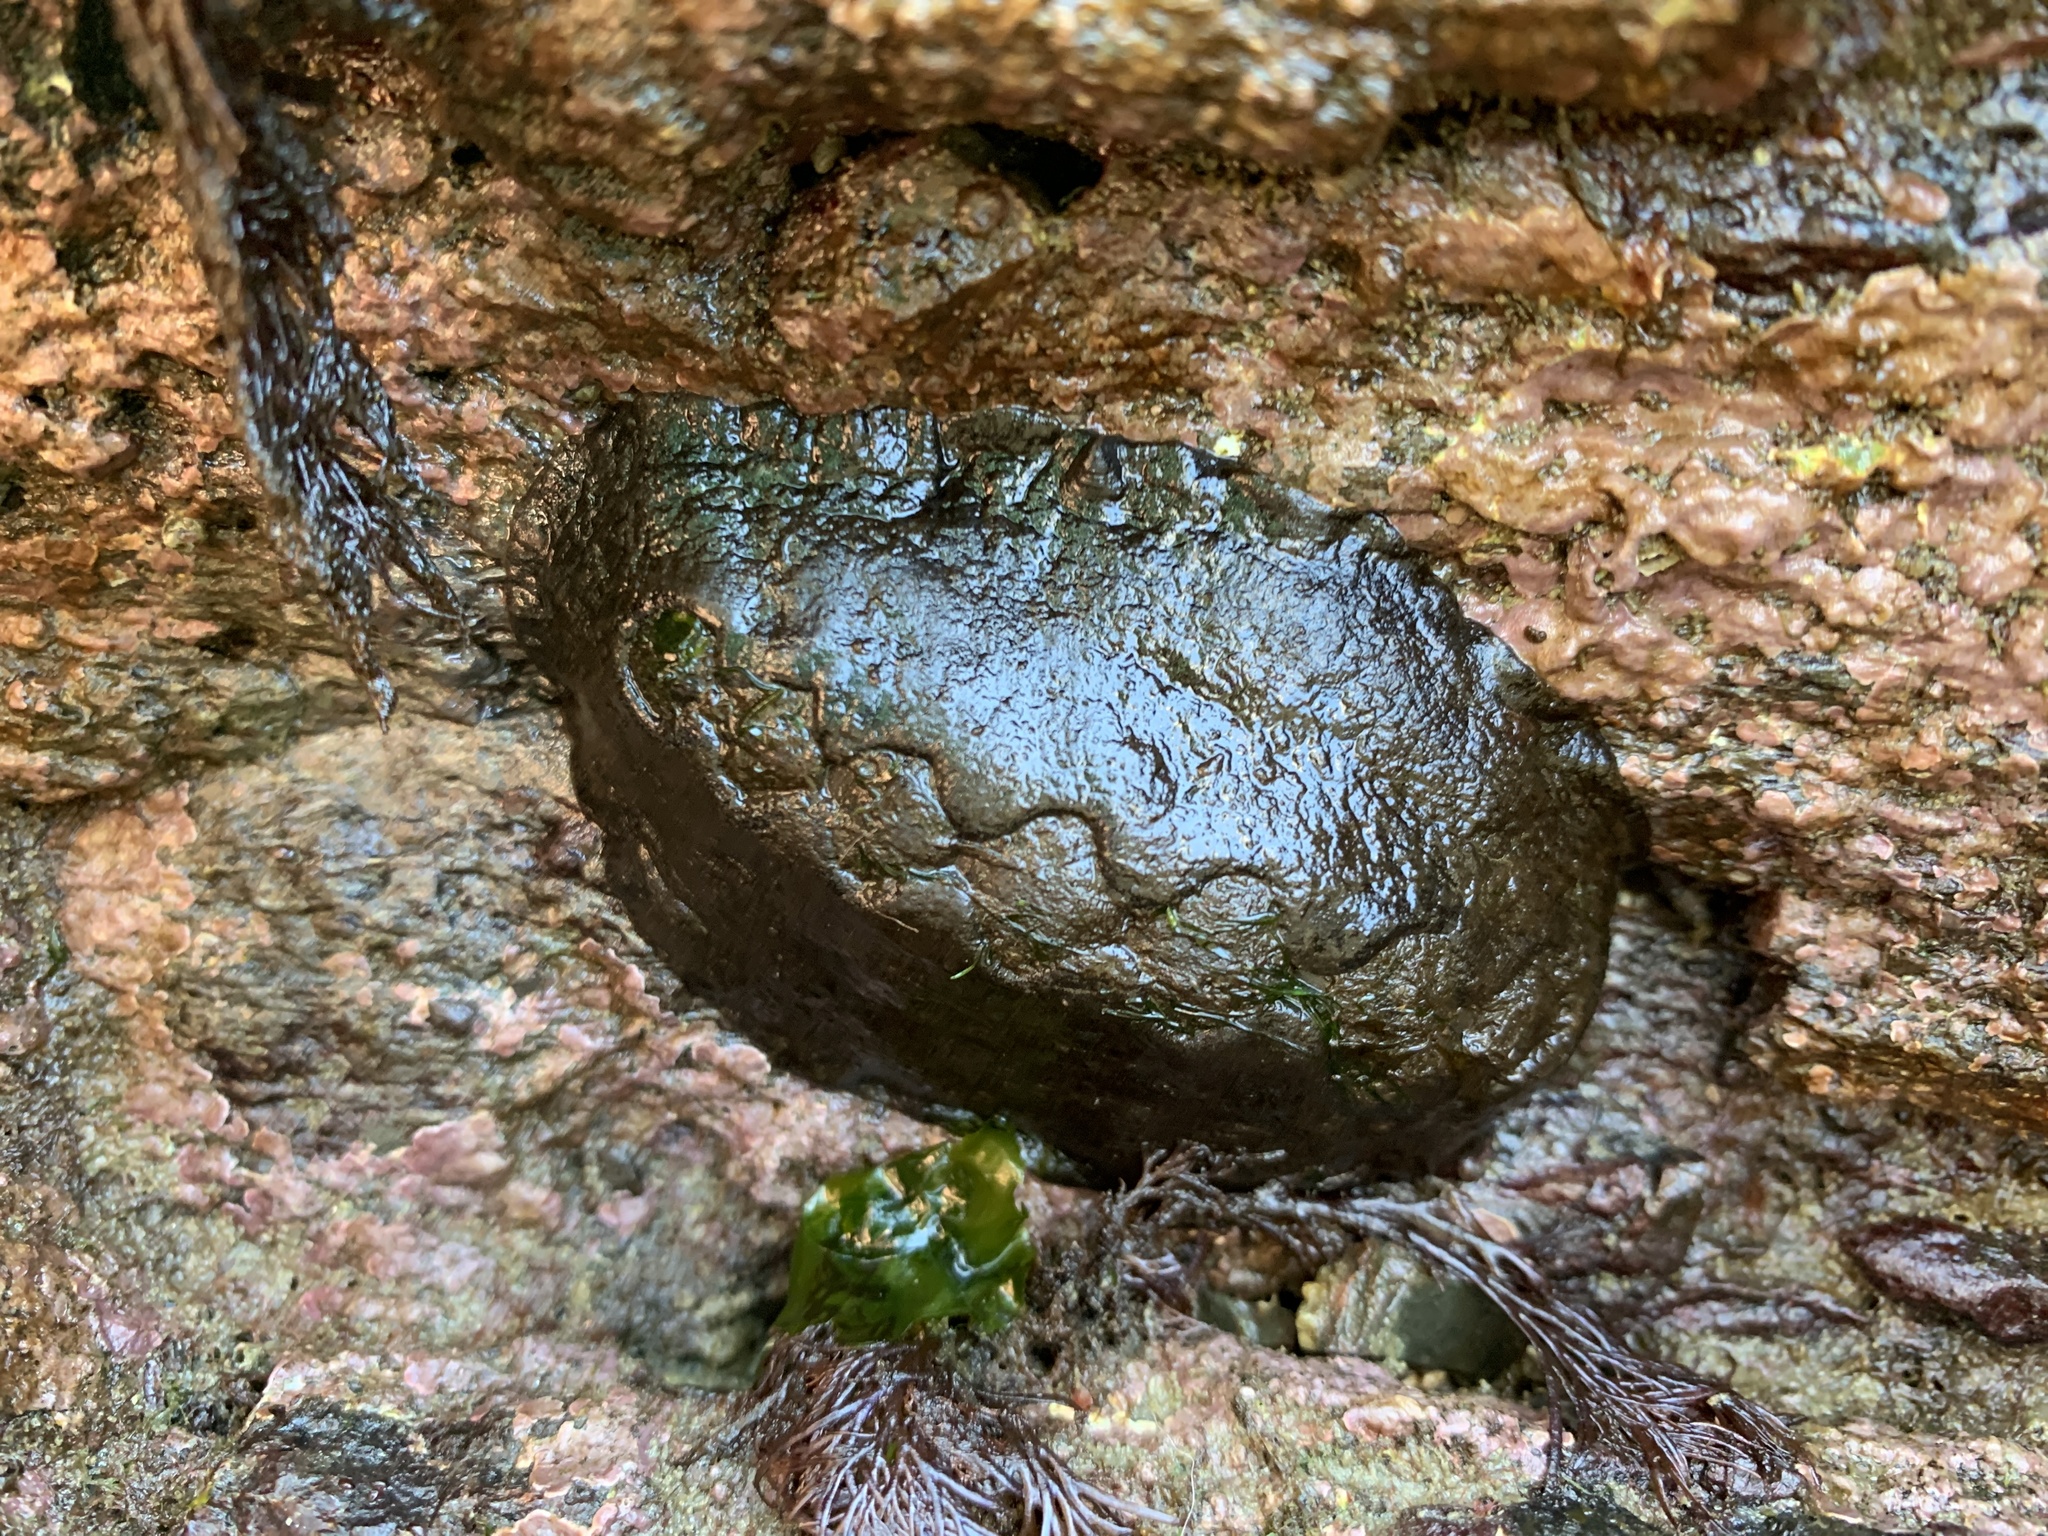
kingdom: Animalia
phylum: Mollusca
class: Polyplacophora
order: Chitonida
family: Mopaliidae
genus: Katharina
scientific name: Katharina tunicata
